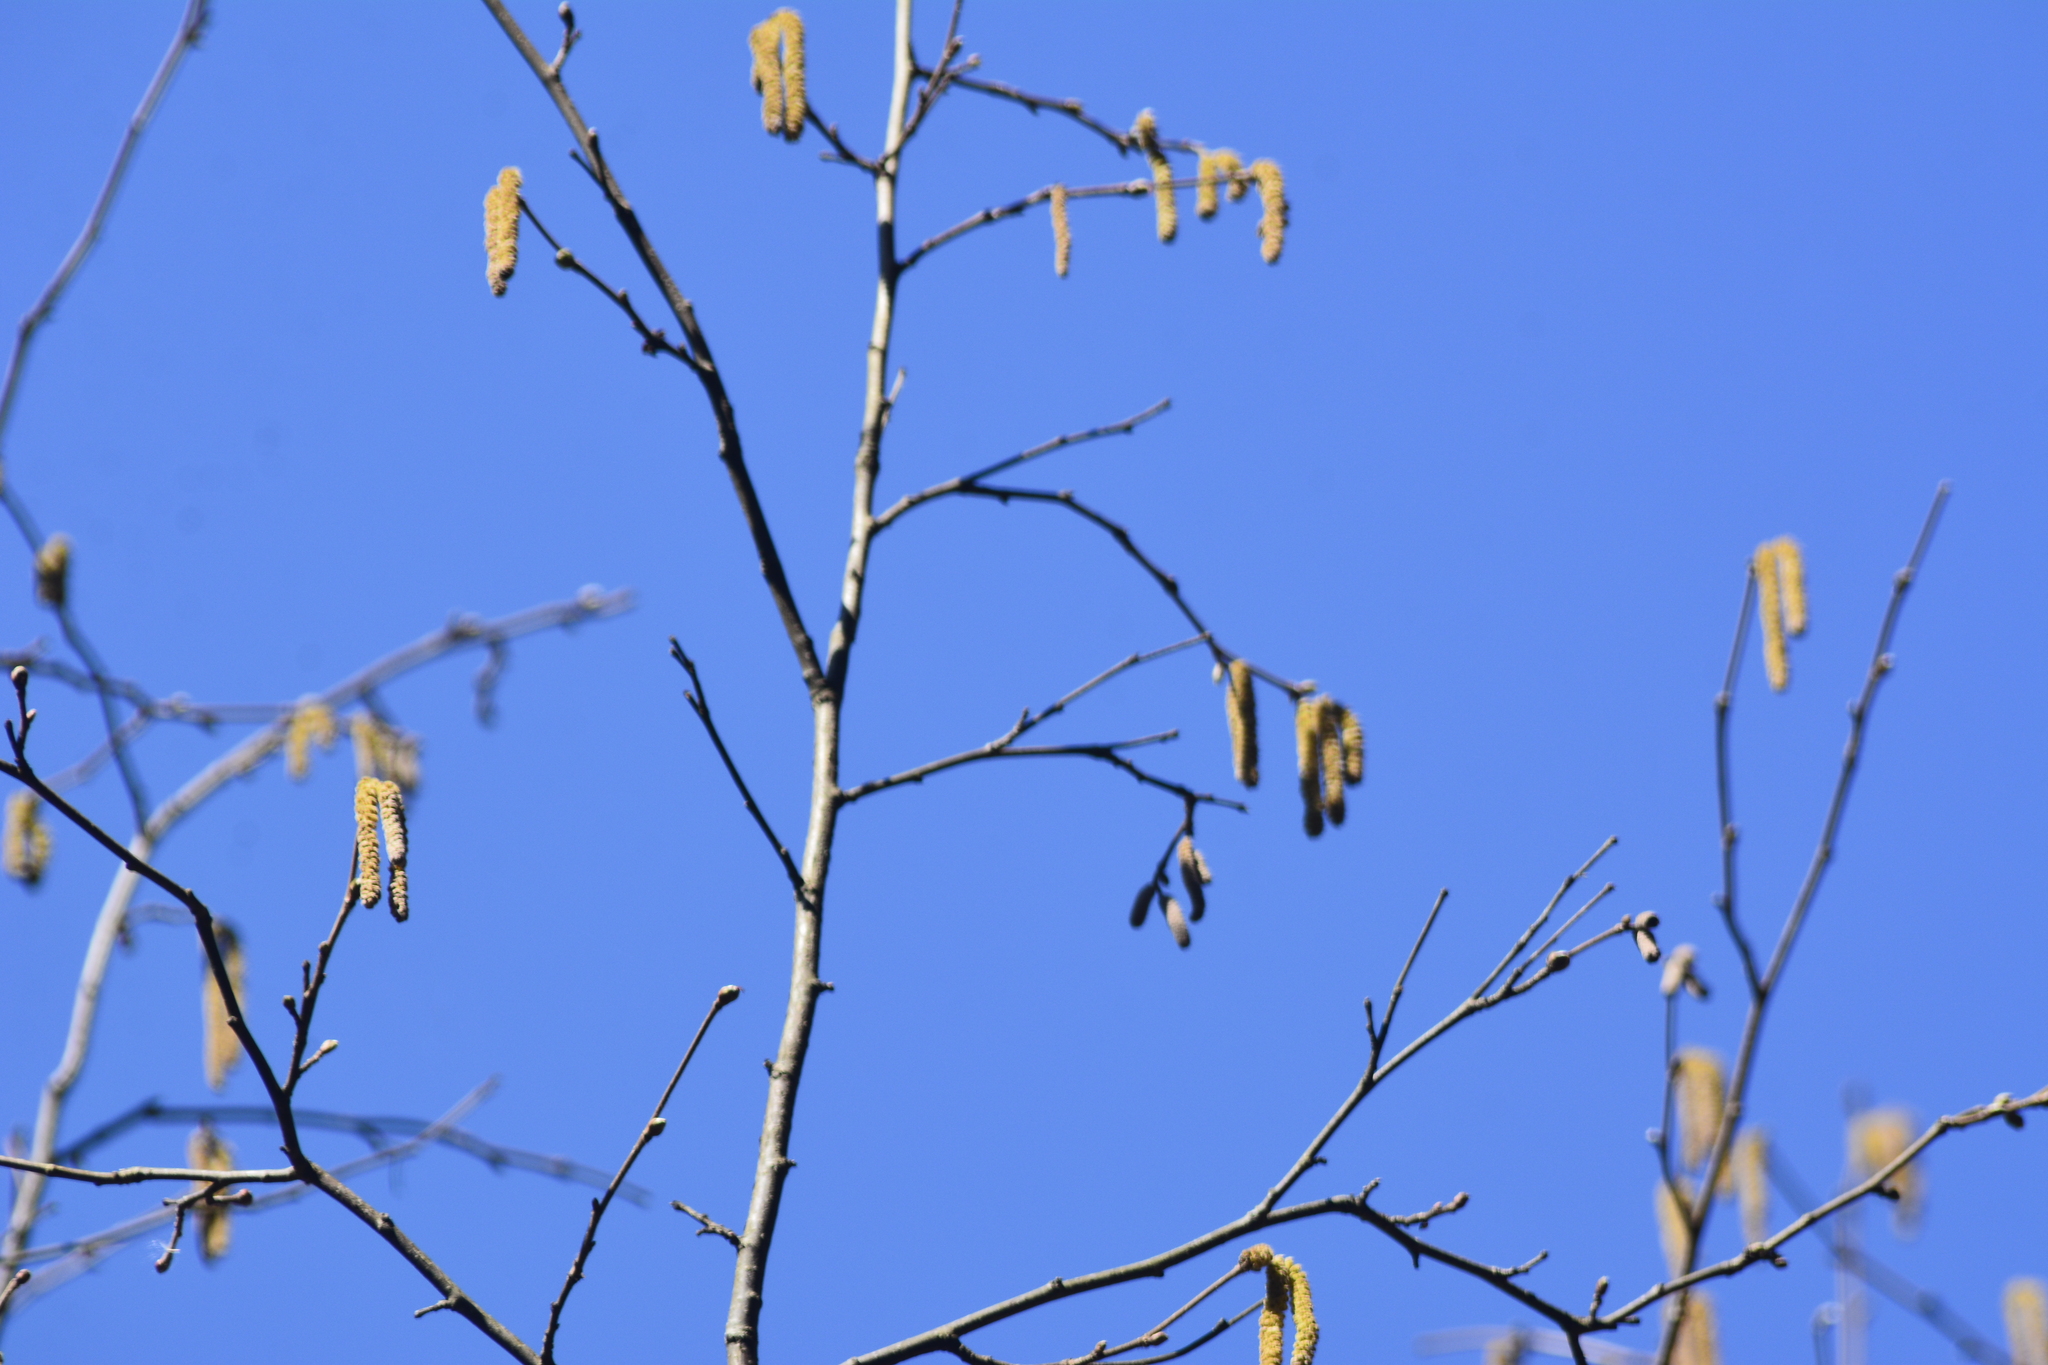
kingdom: Plantae
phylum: Tracheophyta
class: Magnoliopsida
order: Fagales
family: Betulaceae
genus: Corylus
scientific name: Corylus avellana
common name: European hazel
